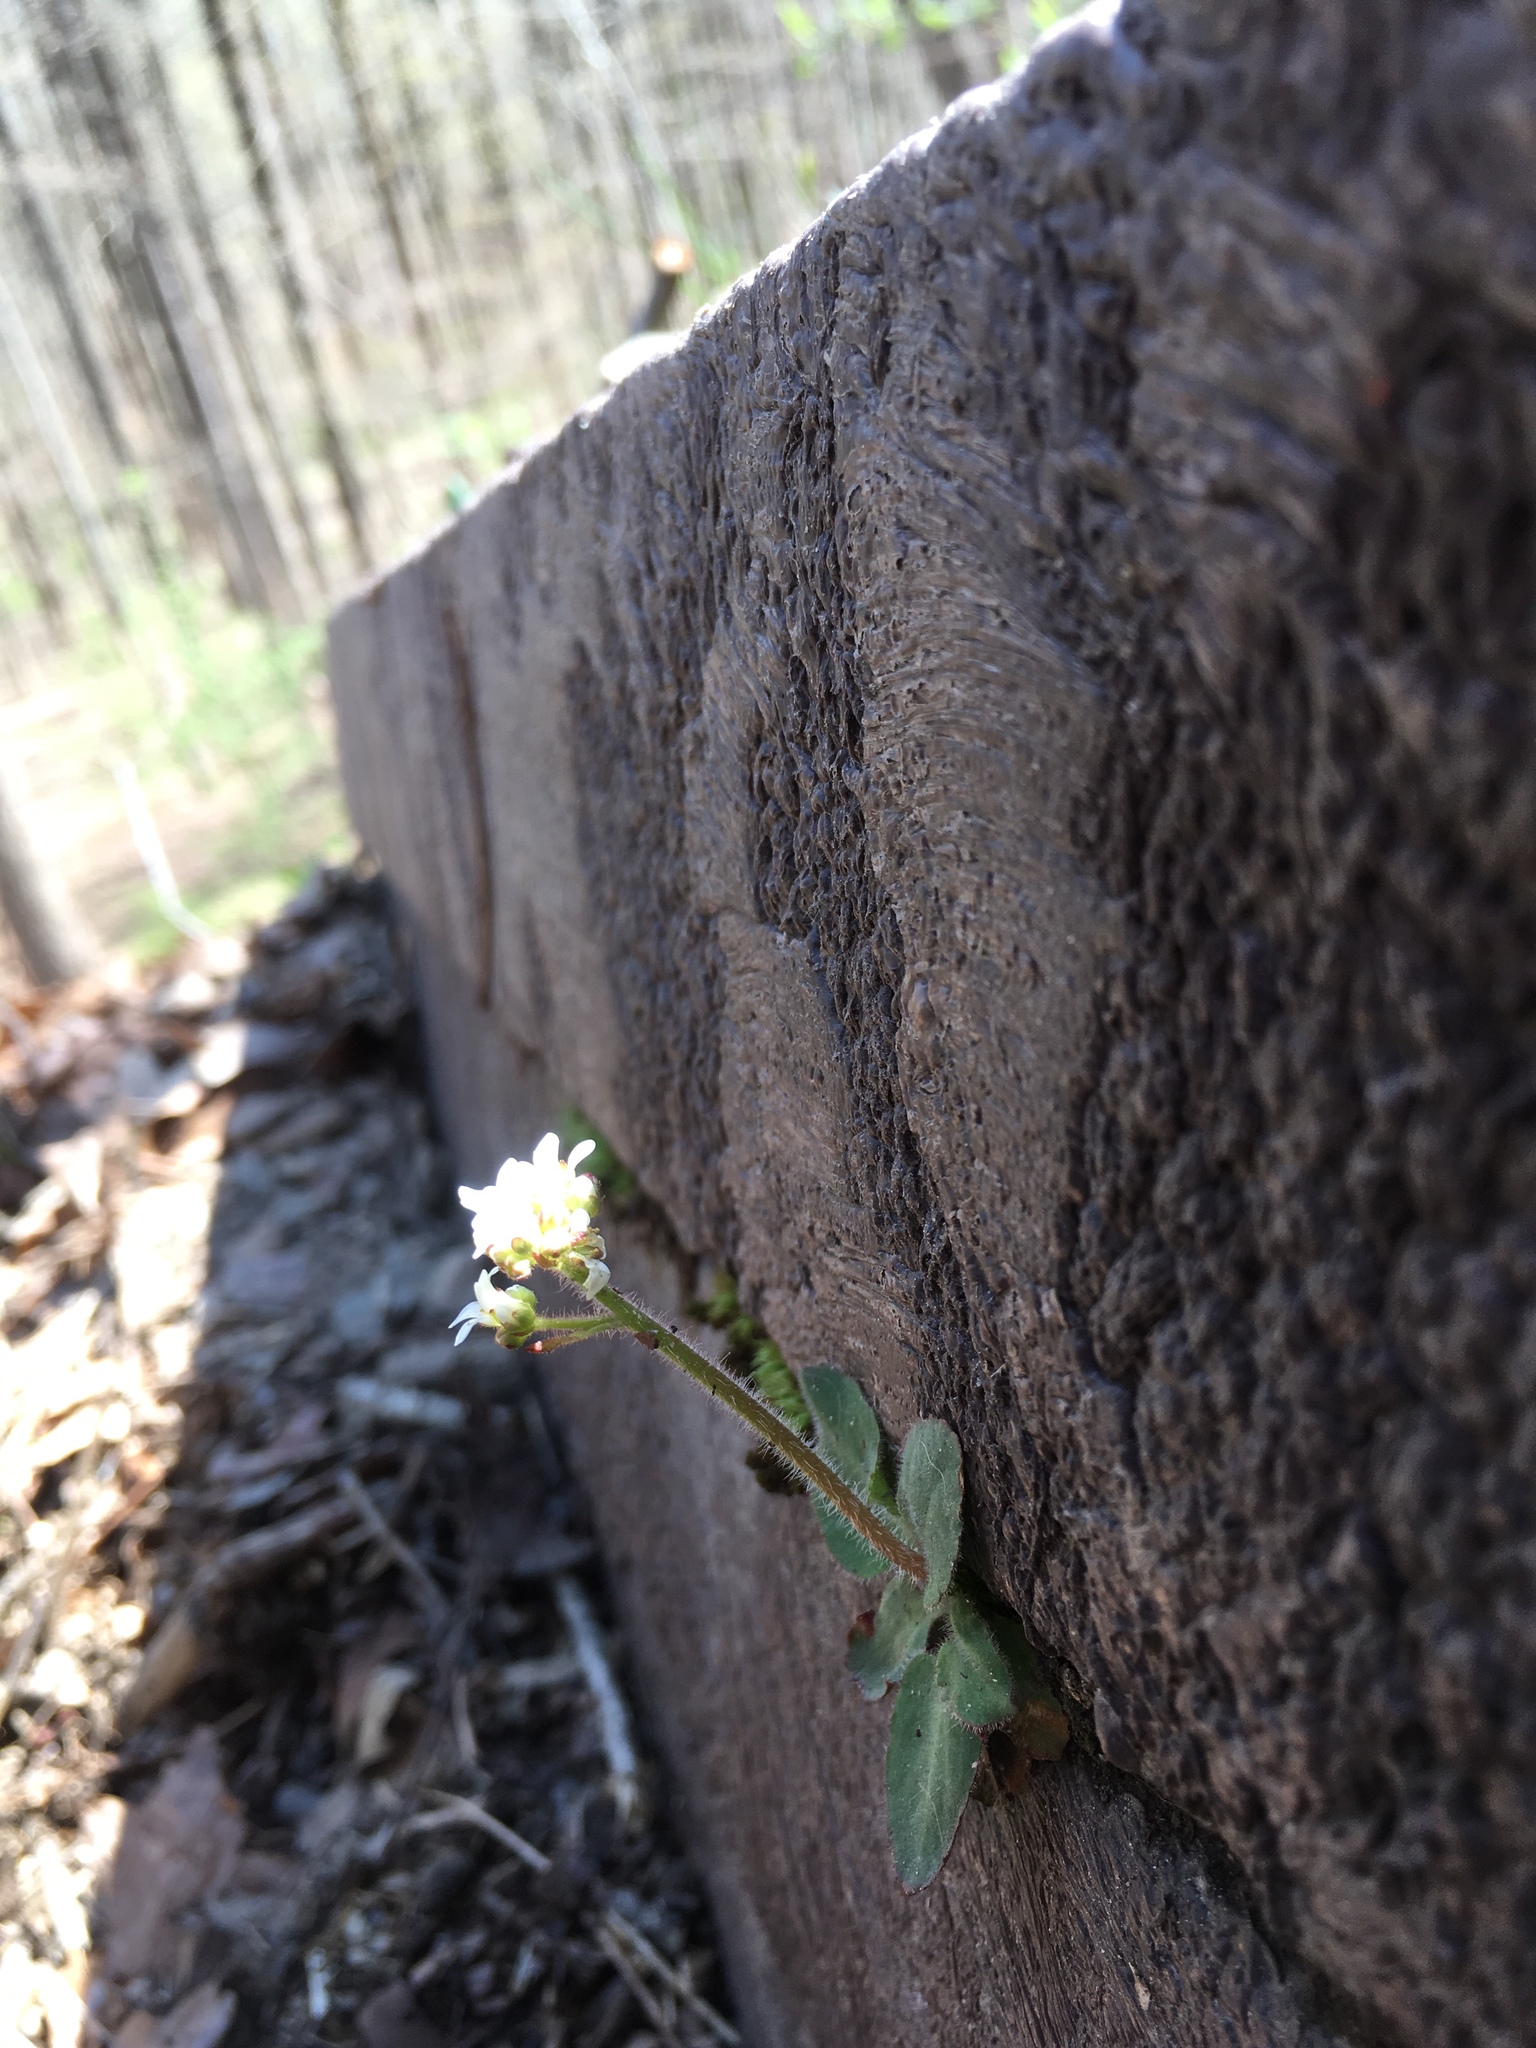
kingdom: Plantae
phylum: Tracheophyta
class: Magnoliopsida
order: Saxifragales
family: Saxifragaceae
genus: Micranthes
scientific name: Micranthes virginiensis
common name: Early saxifrage
